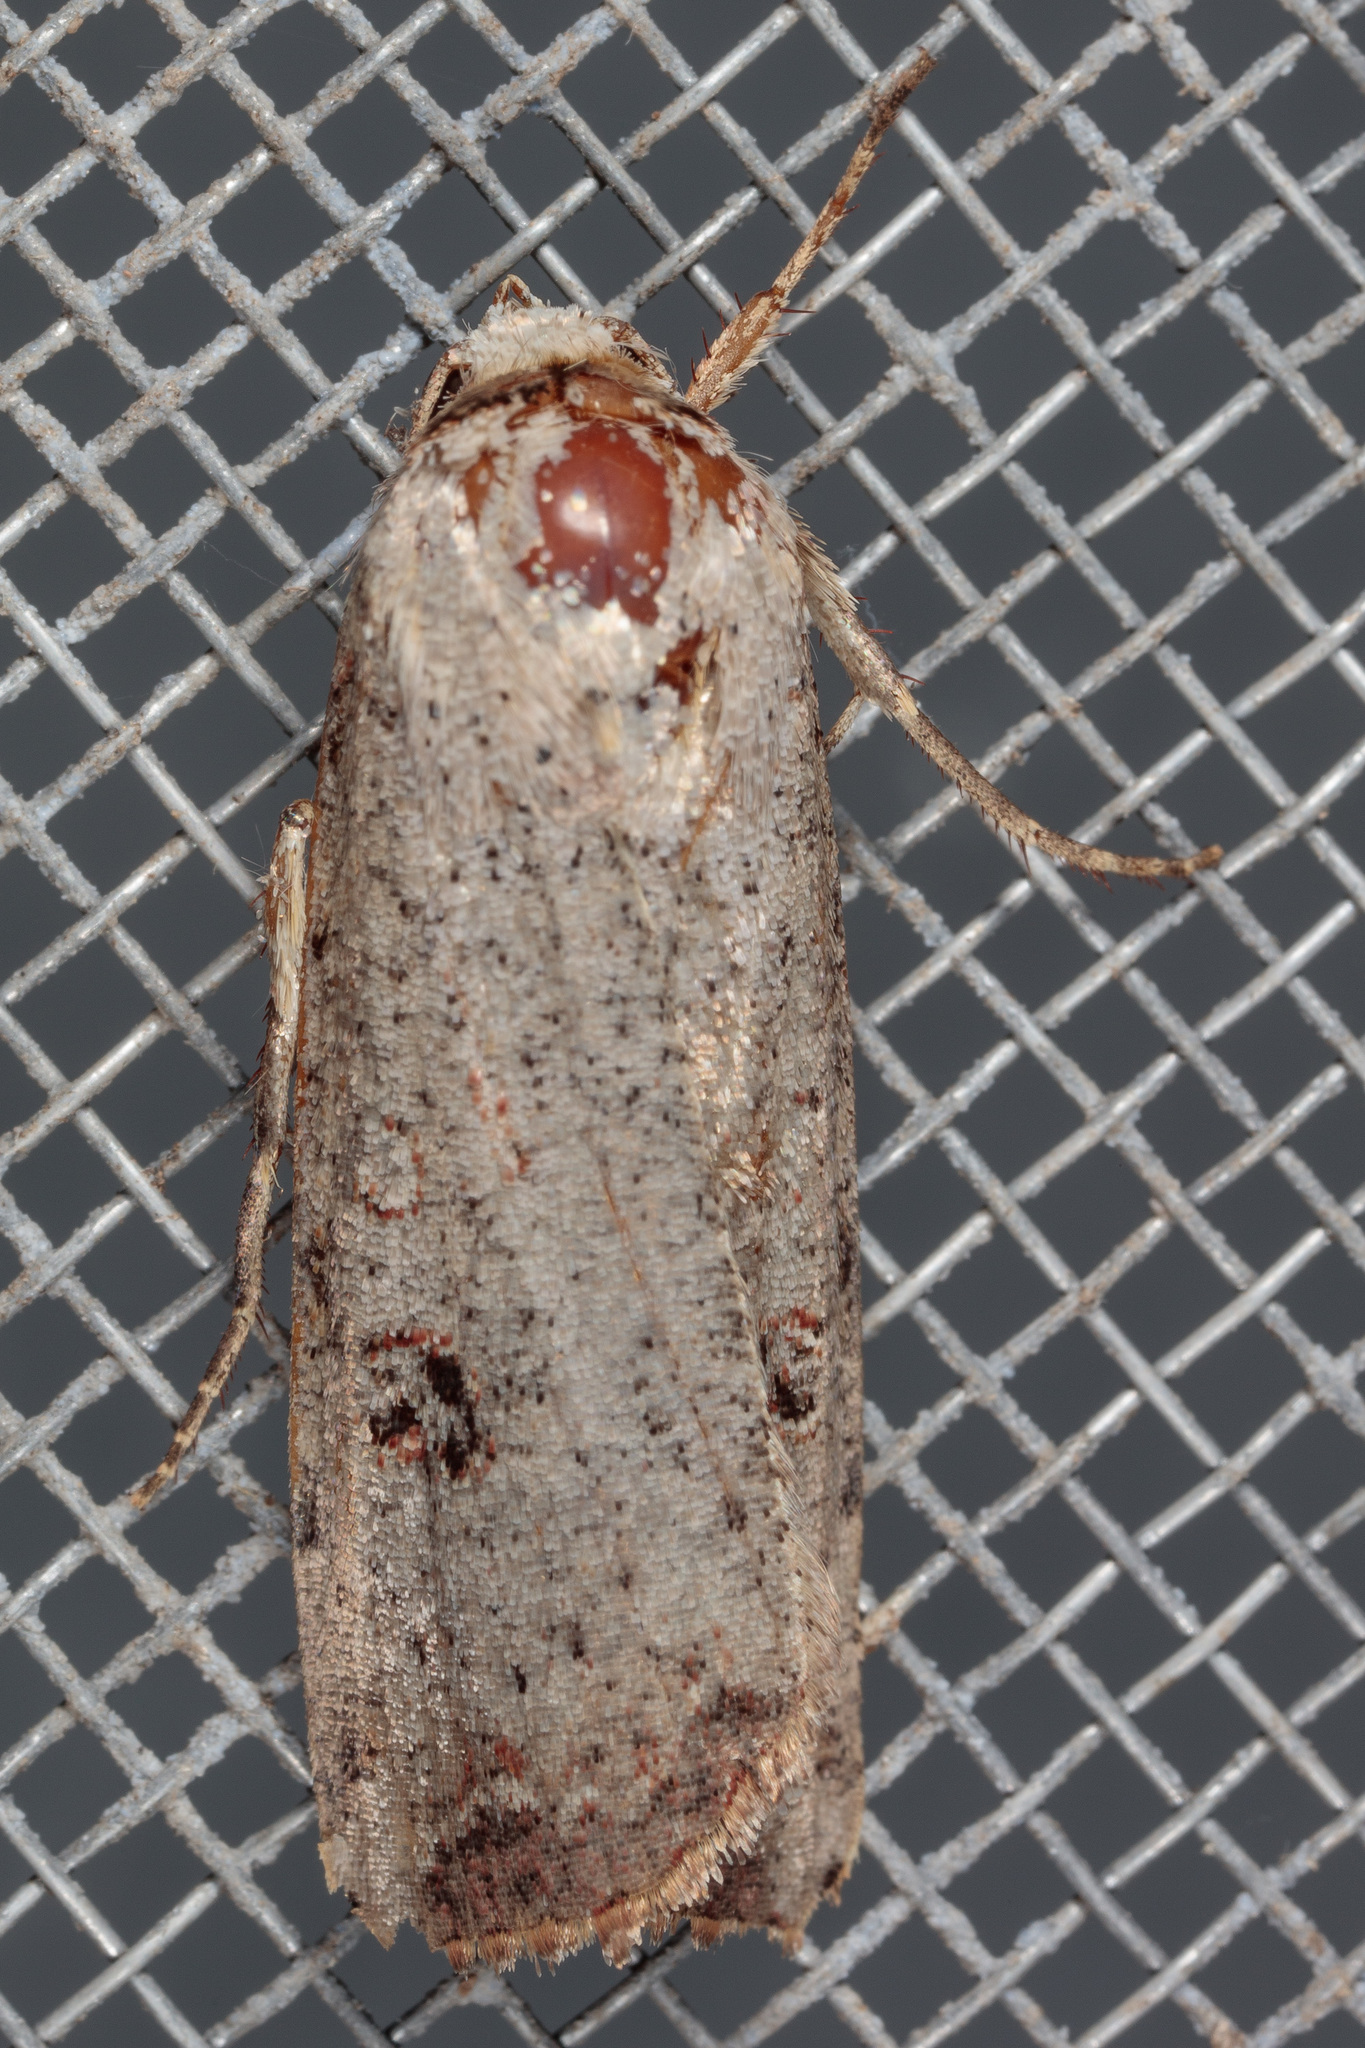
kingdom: Animalia
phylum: Arthropoda
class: Insecta
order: Lepidoptera
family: Noctuidae
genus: Anicla
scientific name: Anicla infecta
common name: Green cutworm
